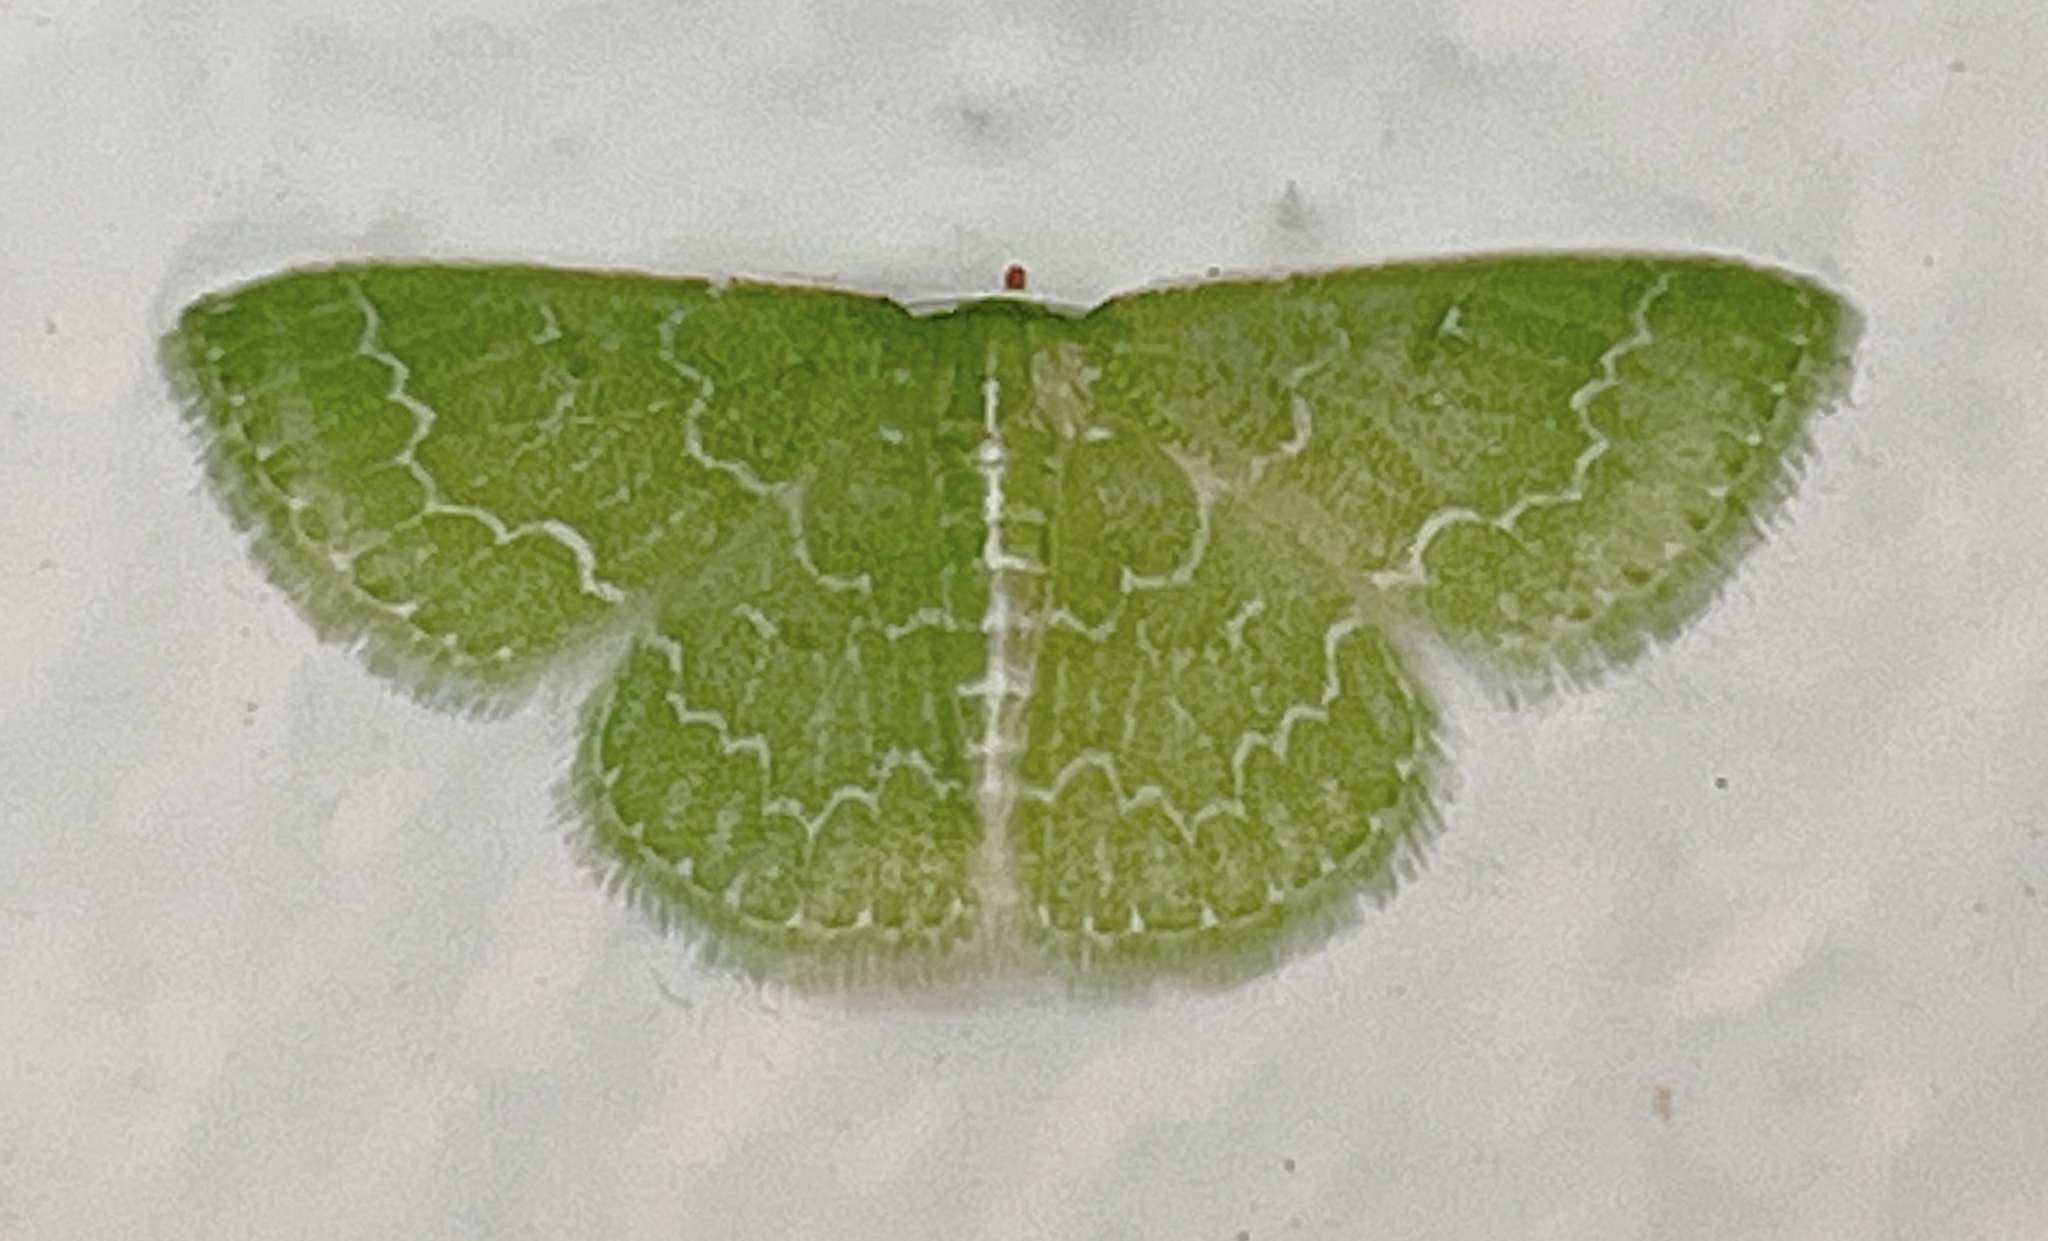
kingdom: Animalia
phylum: Arthropoda
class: Insecta
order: Lepidoptera
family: Geometridae
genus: Synchlora
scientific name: Synchlora frondaria
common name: Southern emerald
